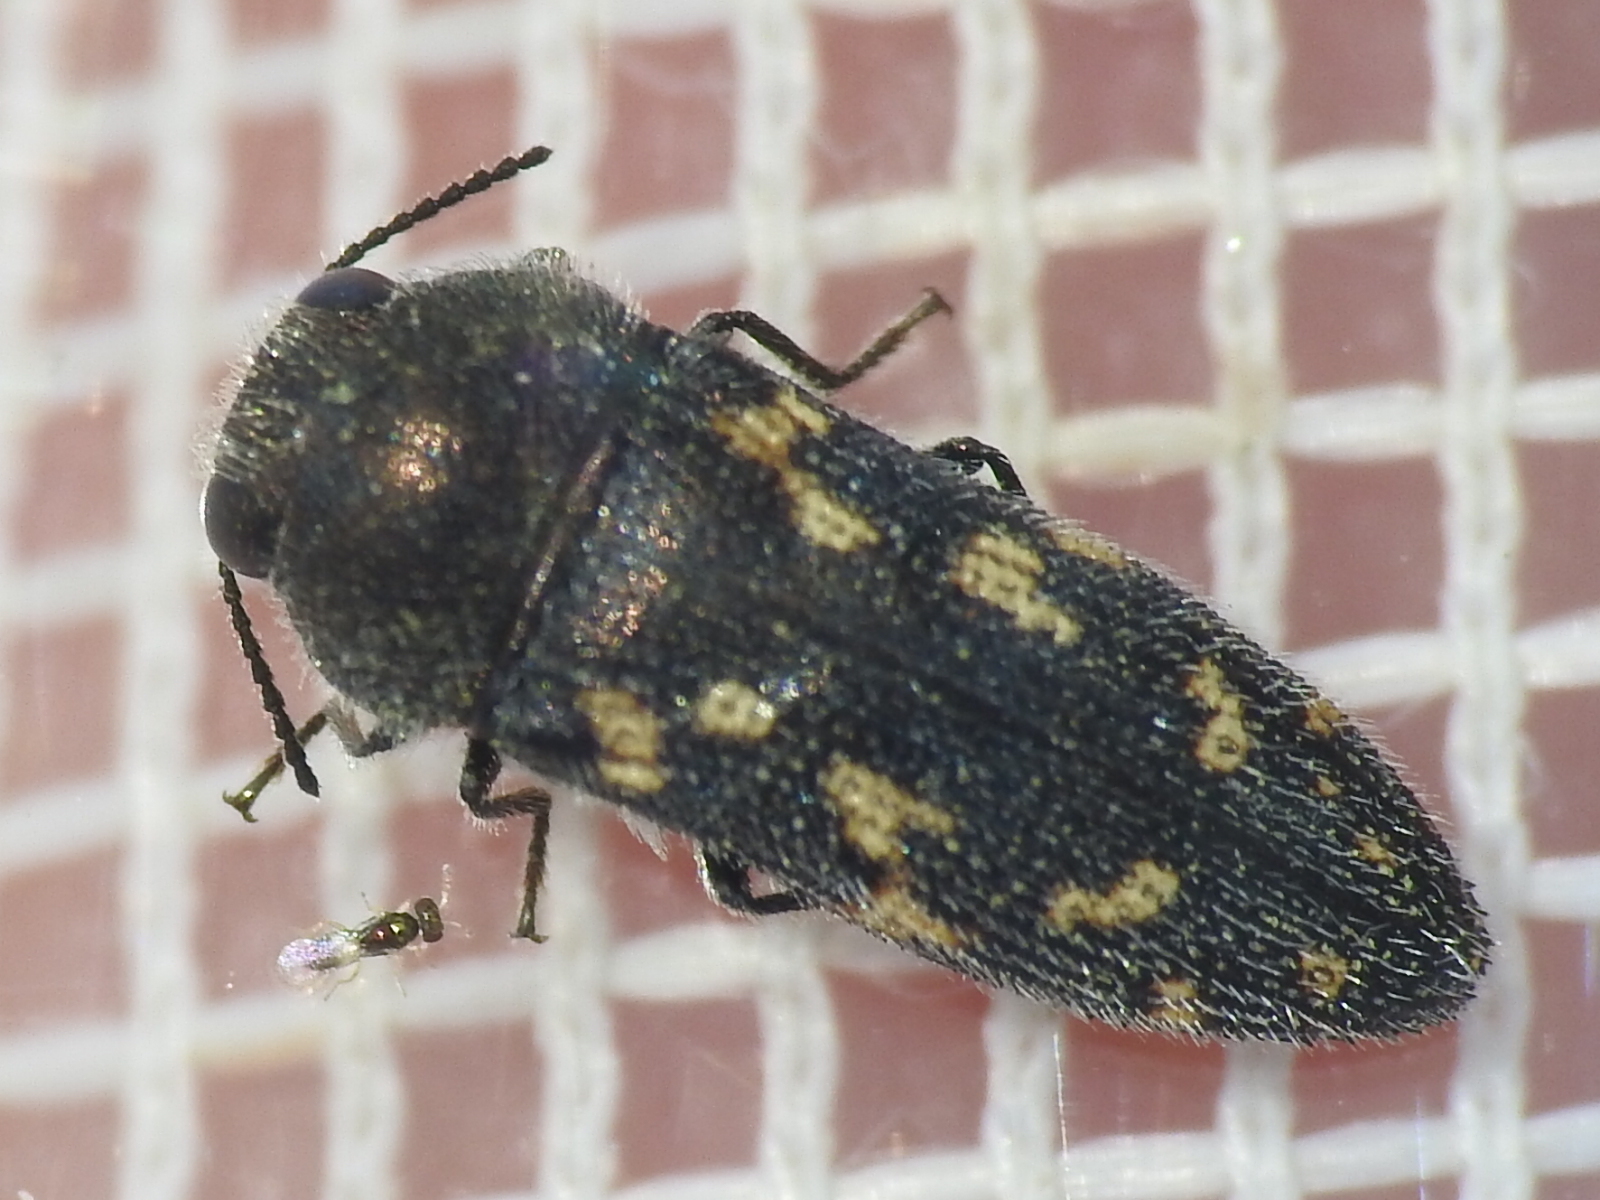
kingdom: Animalia
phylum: Arthropoda
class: Insecta
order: Coleoptera
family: Buprestidae
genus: Acmaeodera
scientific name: Acmaeodera neglecta
